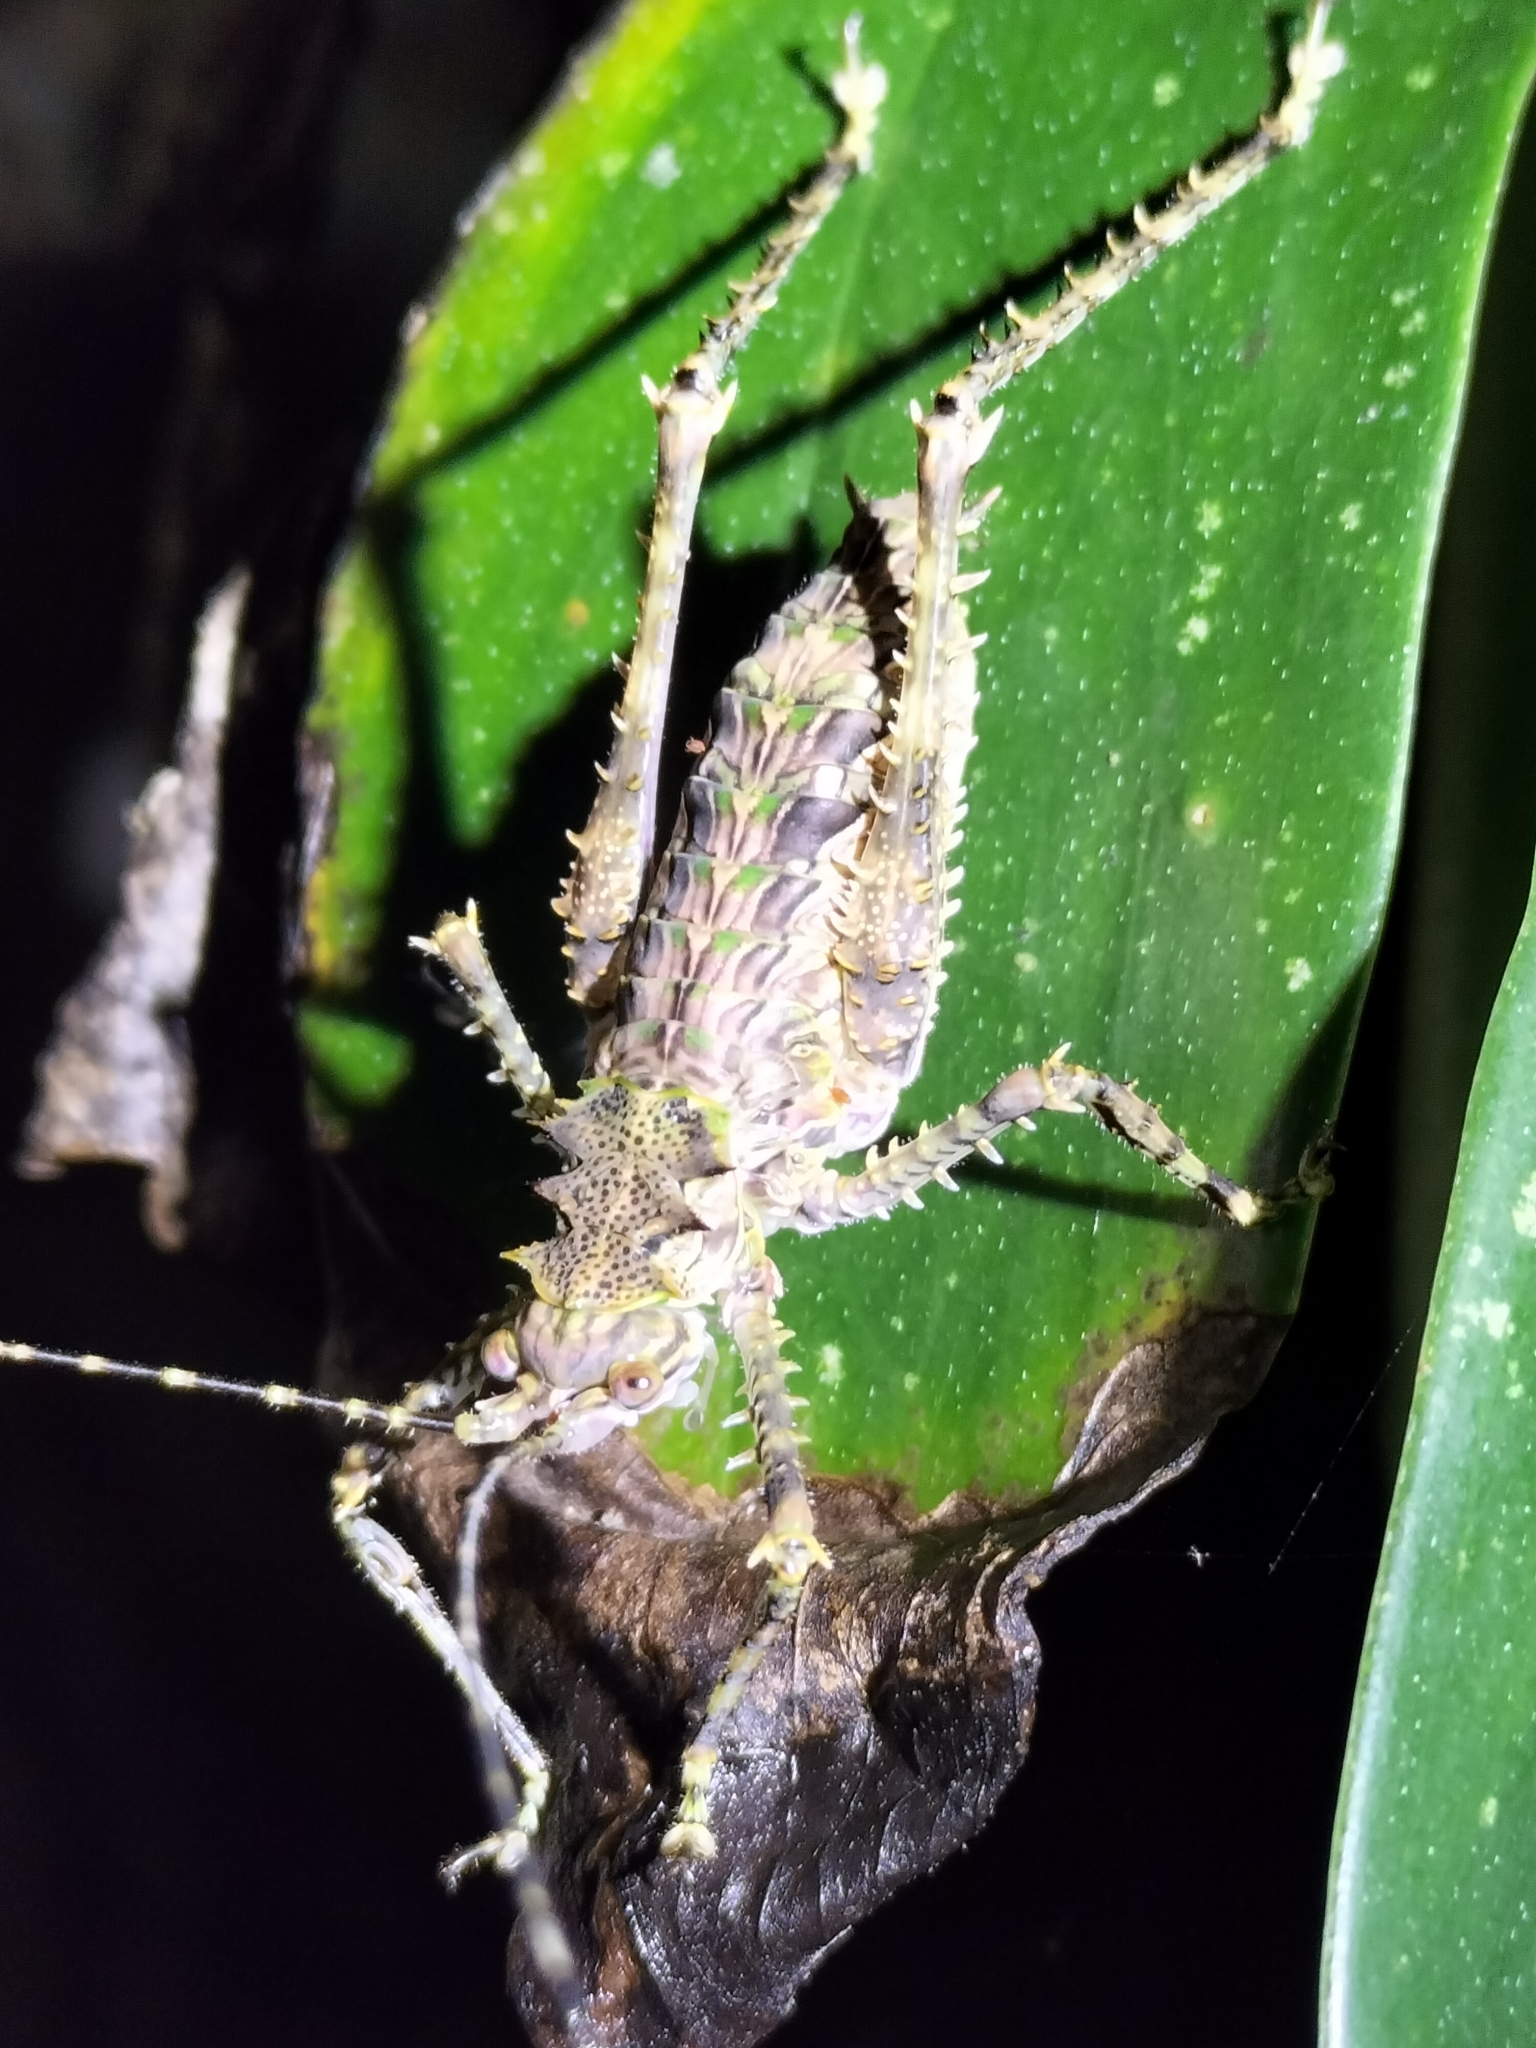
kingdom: Animalia
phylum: Arthropoda
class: Insecta
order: Orthoptera
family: Tettigoniidae
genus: Phricta
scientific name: Phricta spinosa
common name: Giant spiny forest katydid
